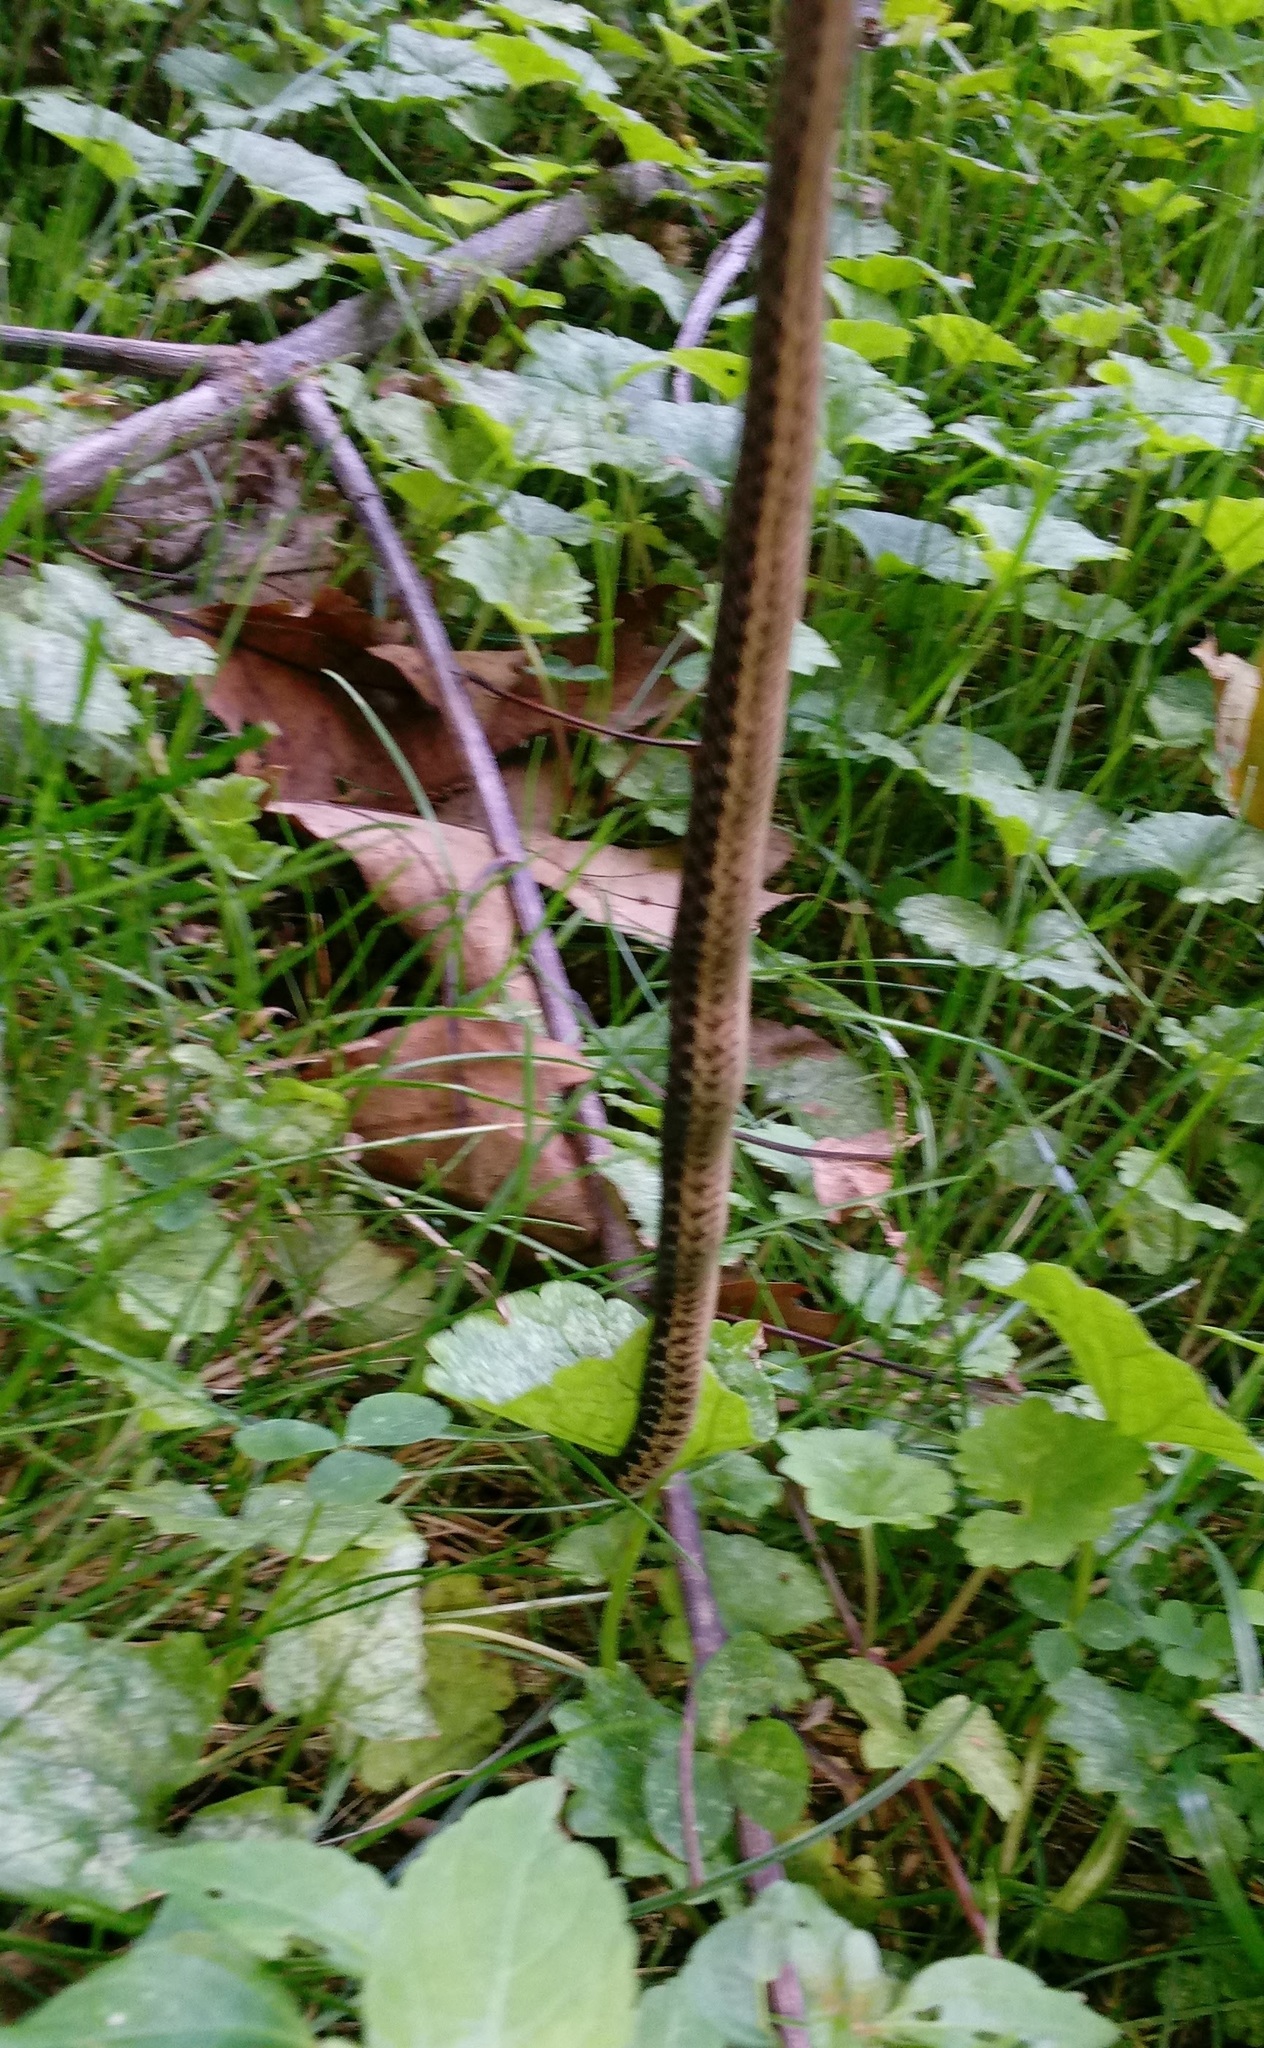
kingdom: Animalia
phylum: Chordata
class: Squamata
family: Colubridae
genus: Thamnophis
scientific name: Thamnophis sirtalis
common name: Common garter snake
